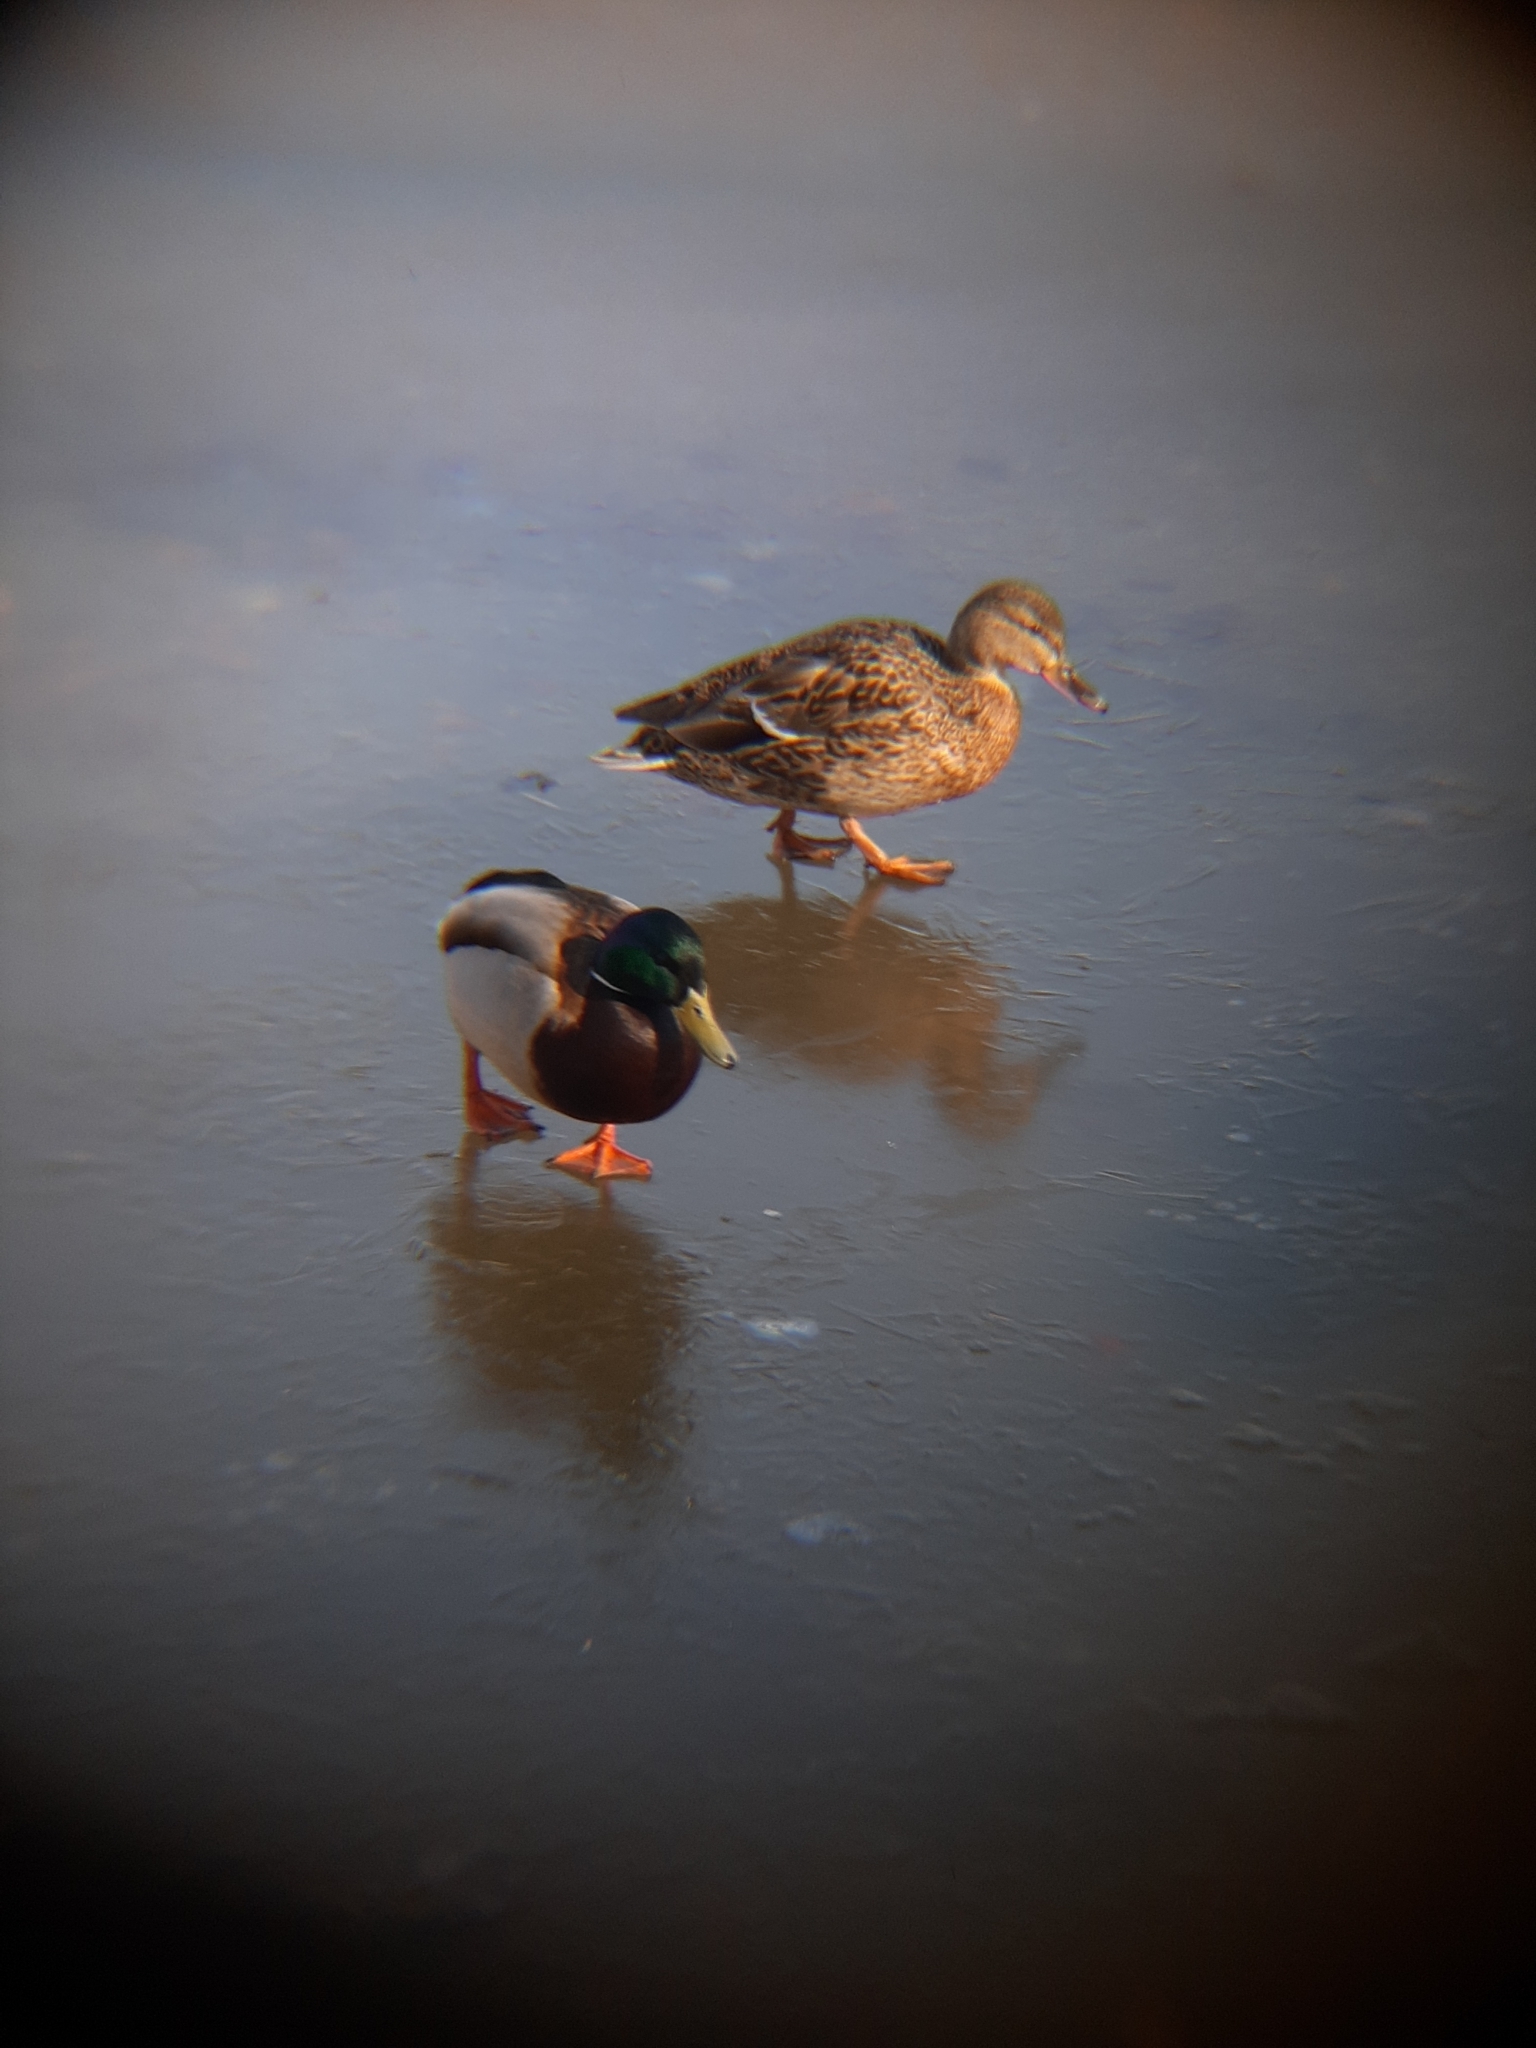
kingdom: Animalia
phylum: Chordata
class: Aves
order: Anseriformes
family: Anatidae
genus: Anas
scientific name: Anas platyrhynchos
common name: Mallard
